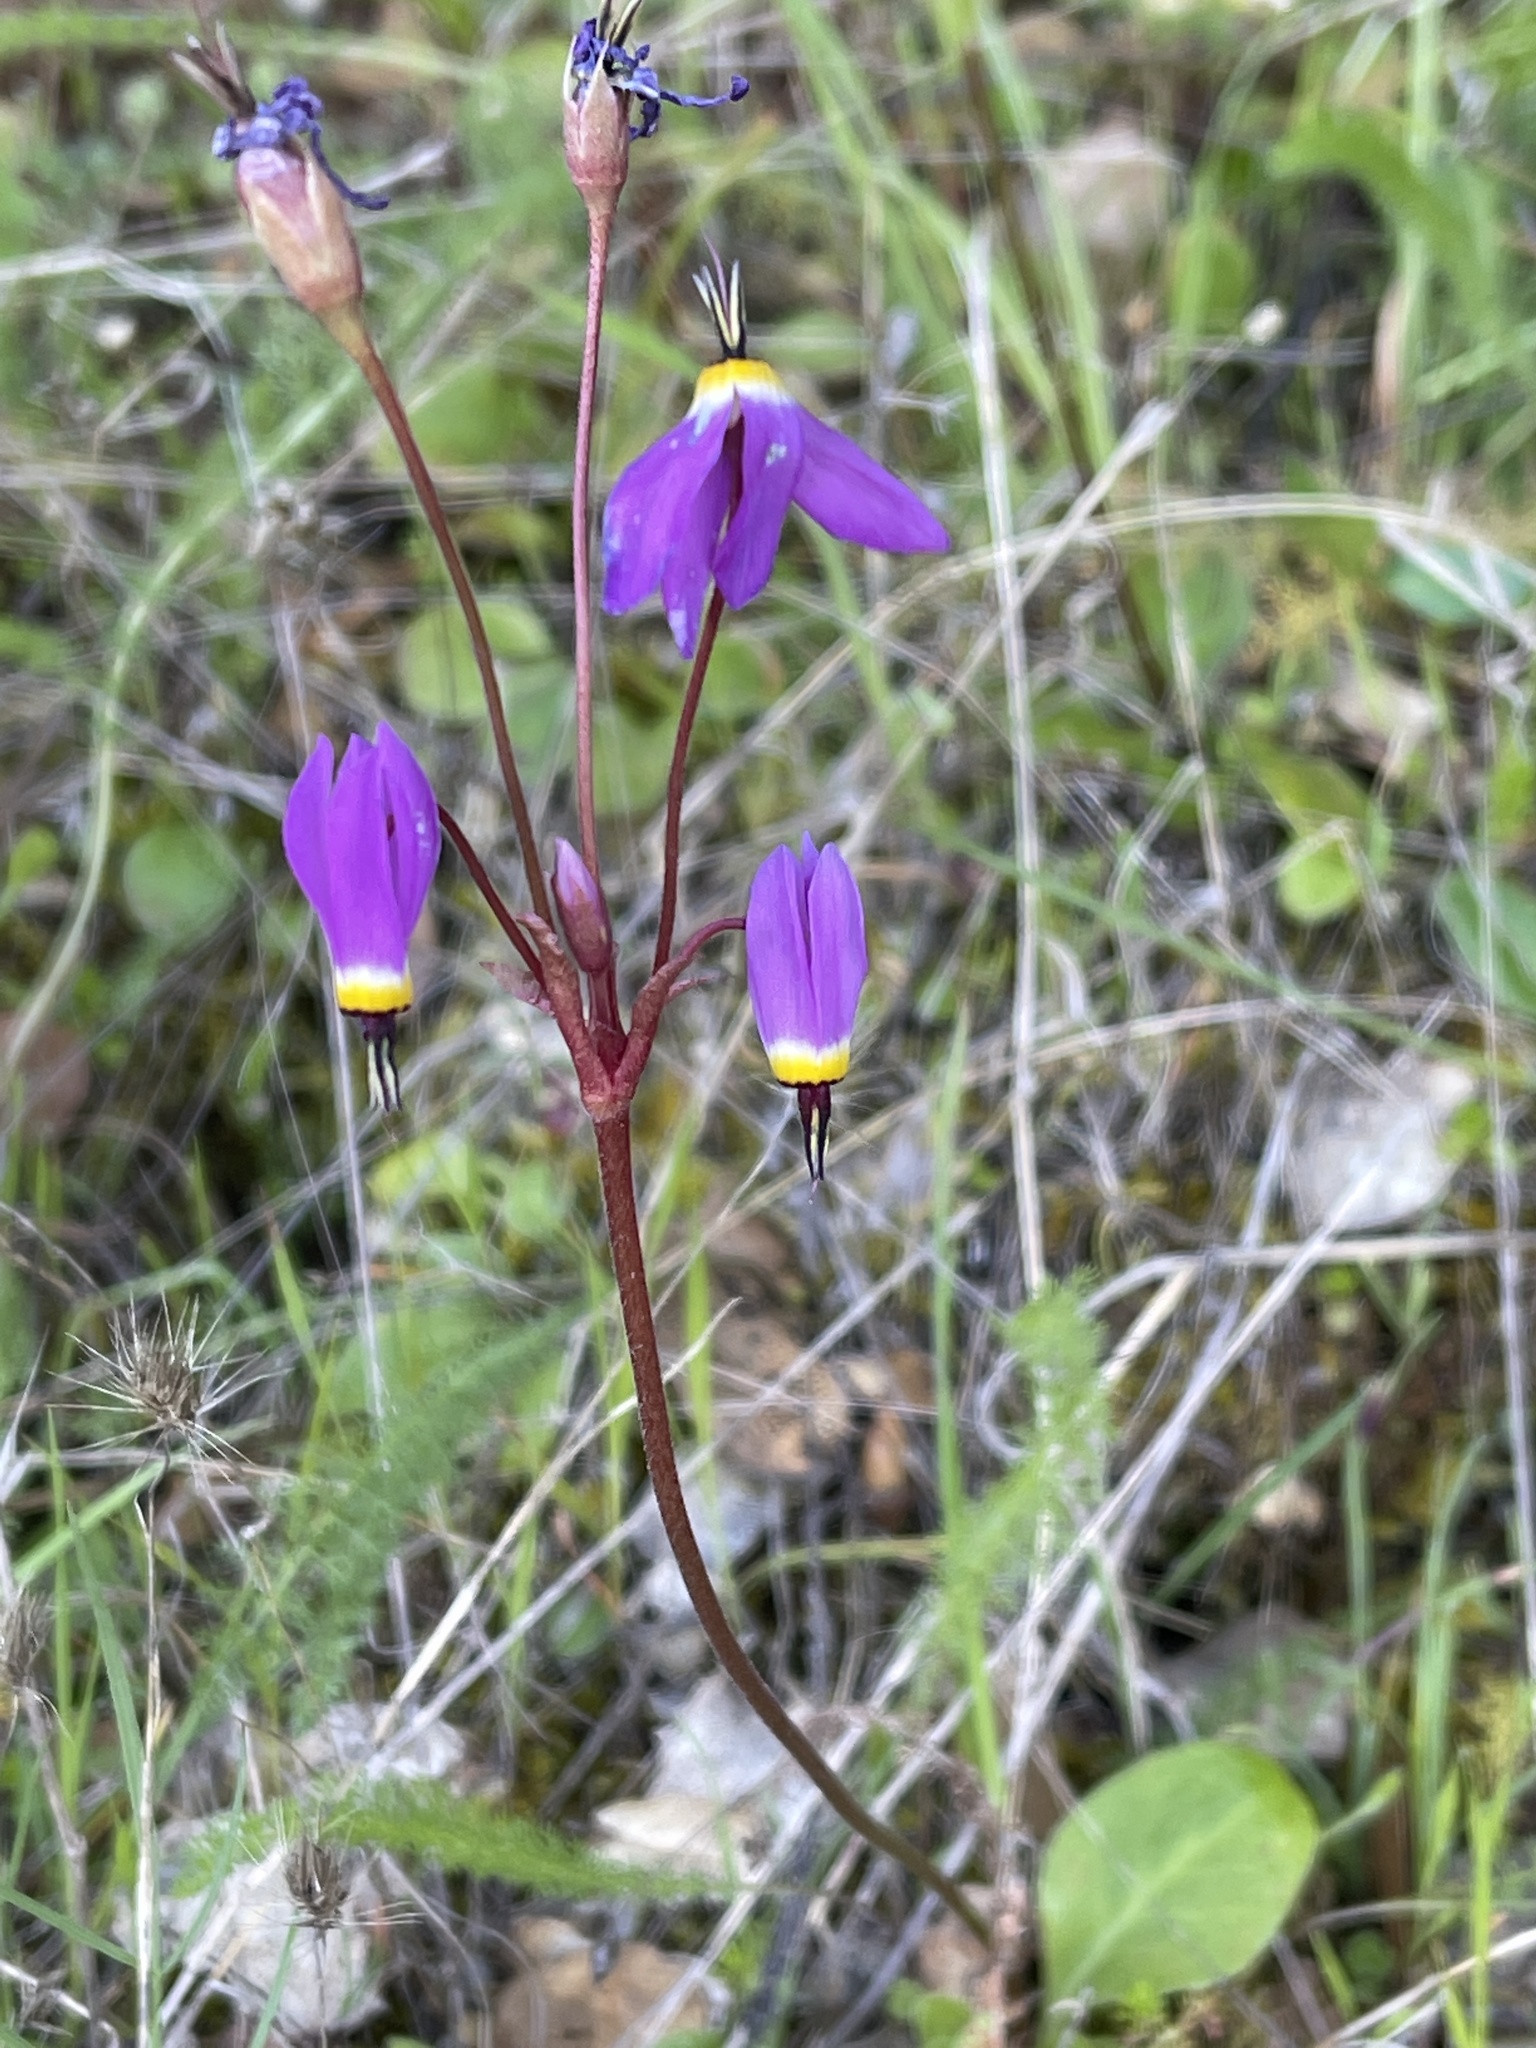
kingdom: Plantae
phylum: Tracheophyta
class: Magnoliopsida
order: Ericales
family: Primulaceae
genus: Dodecatheon
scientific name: Dodecatheon hendersonii
